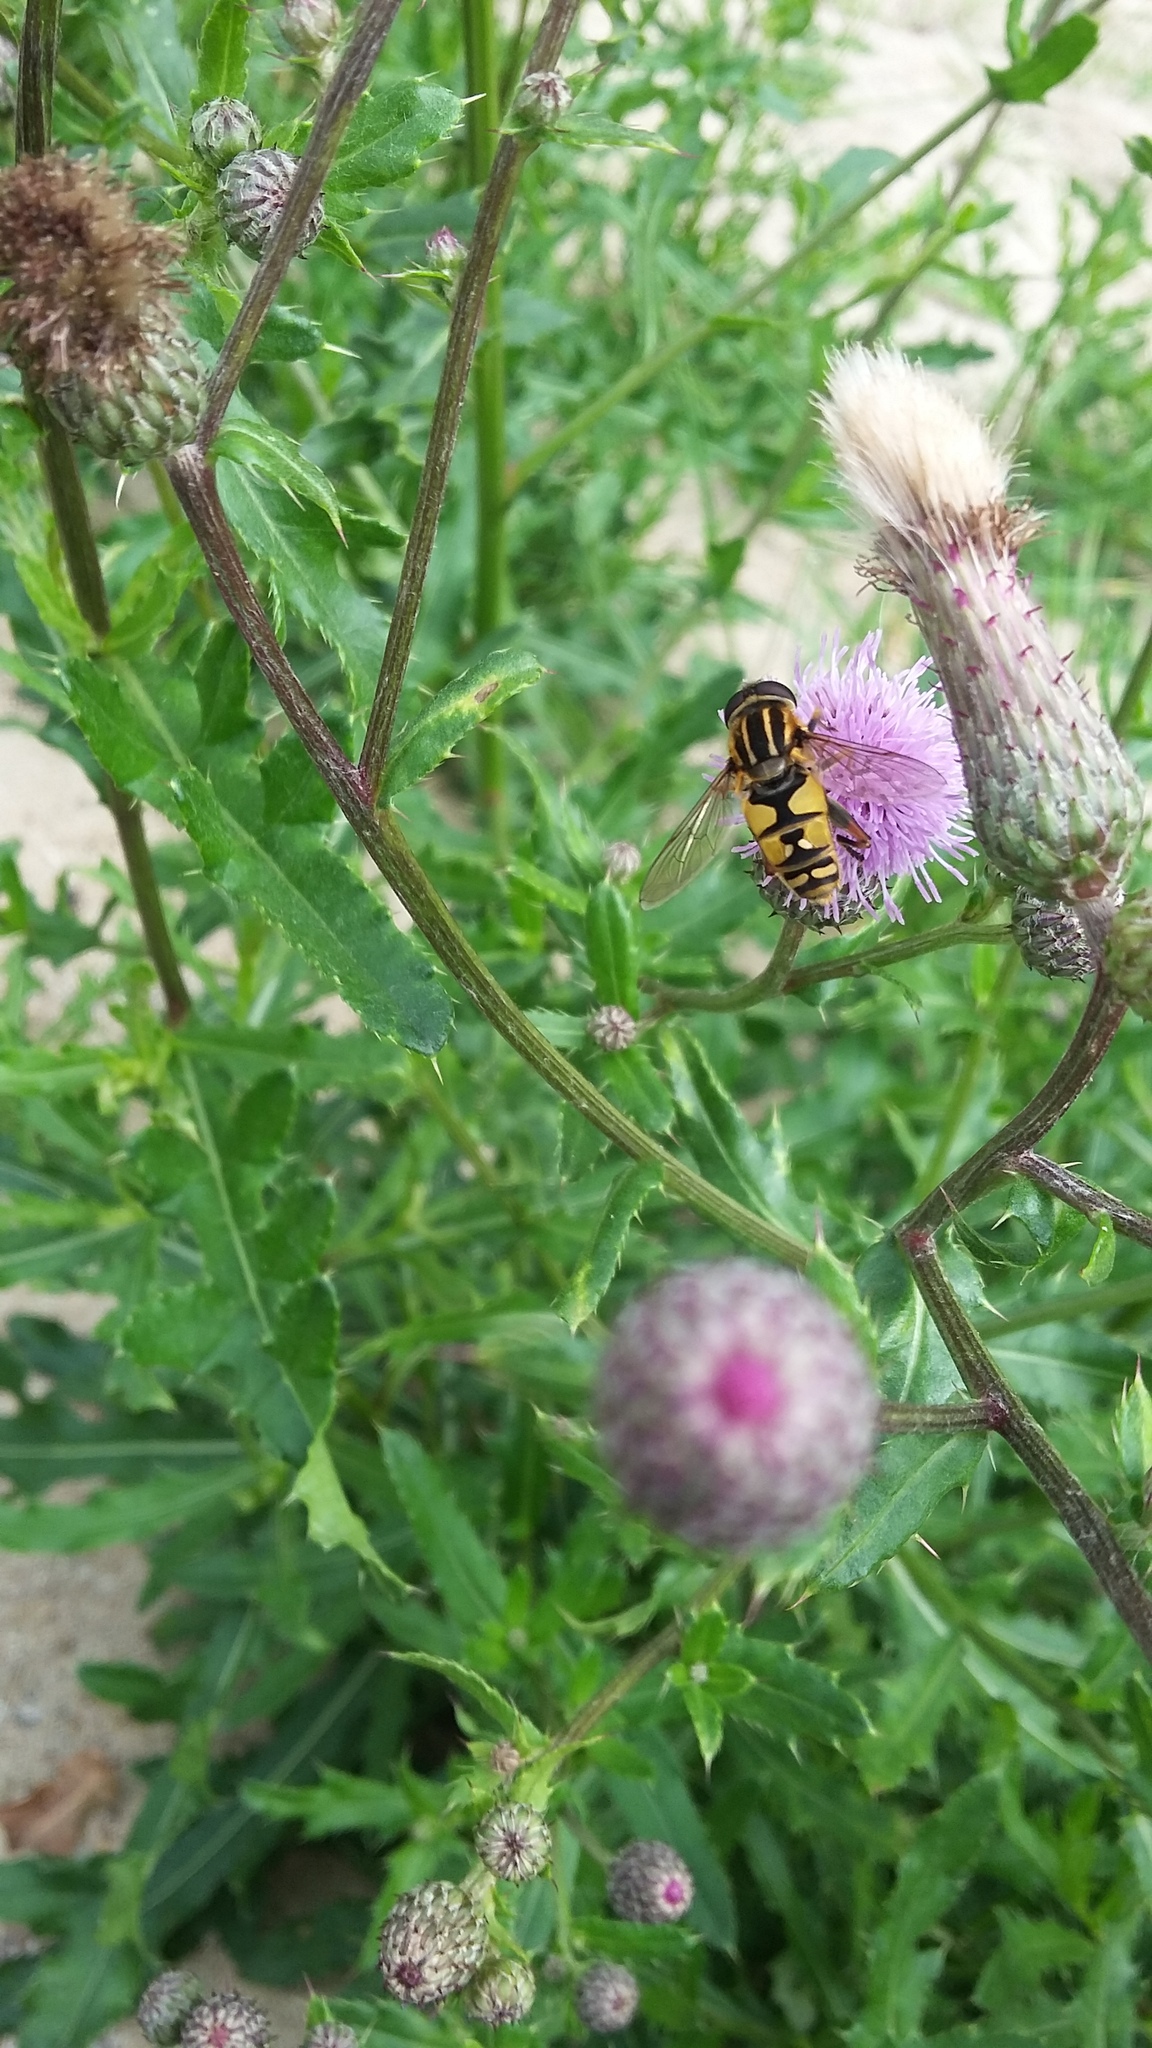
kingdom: Animalia
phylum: Arthropoda
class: Insecta
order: Diptera
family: Syrphidae
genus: Helophilus
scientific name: Helophilus pendulus
